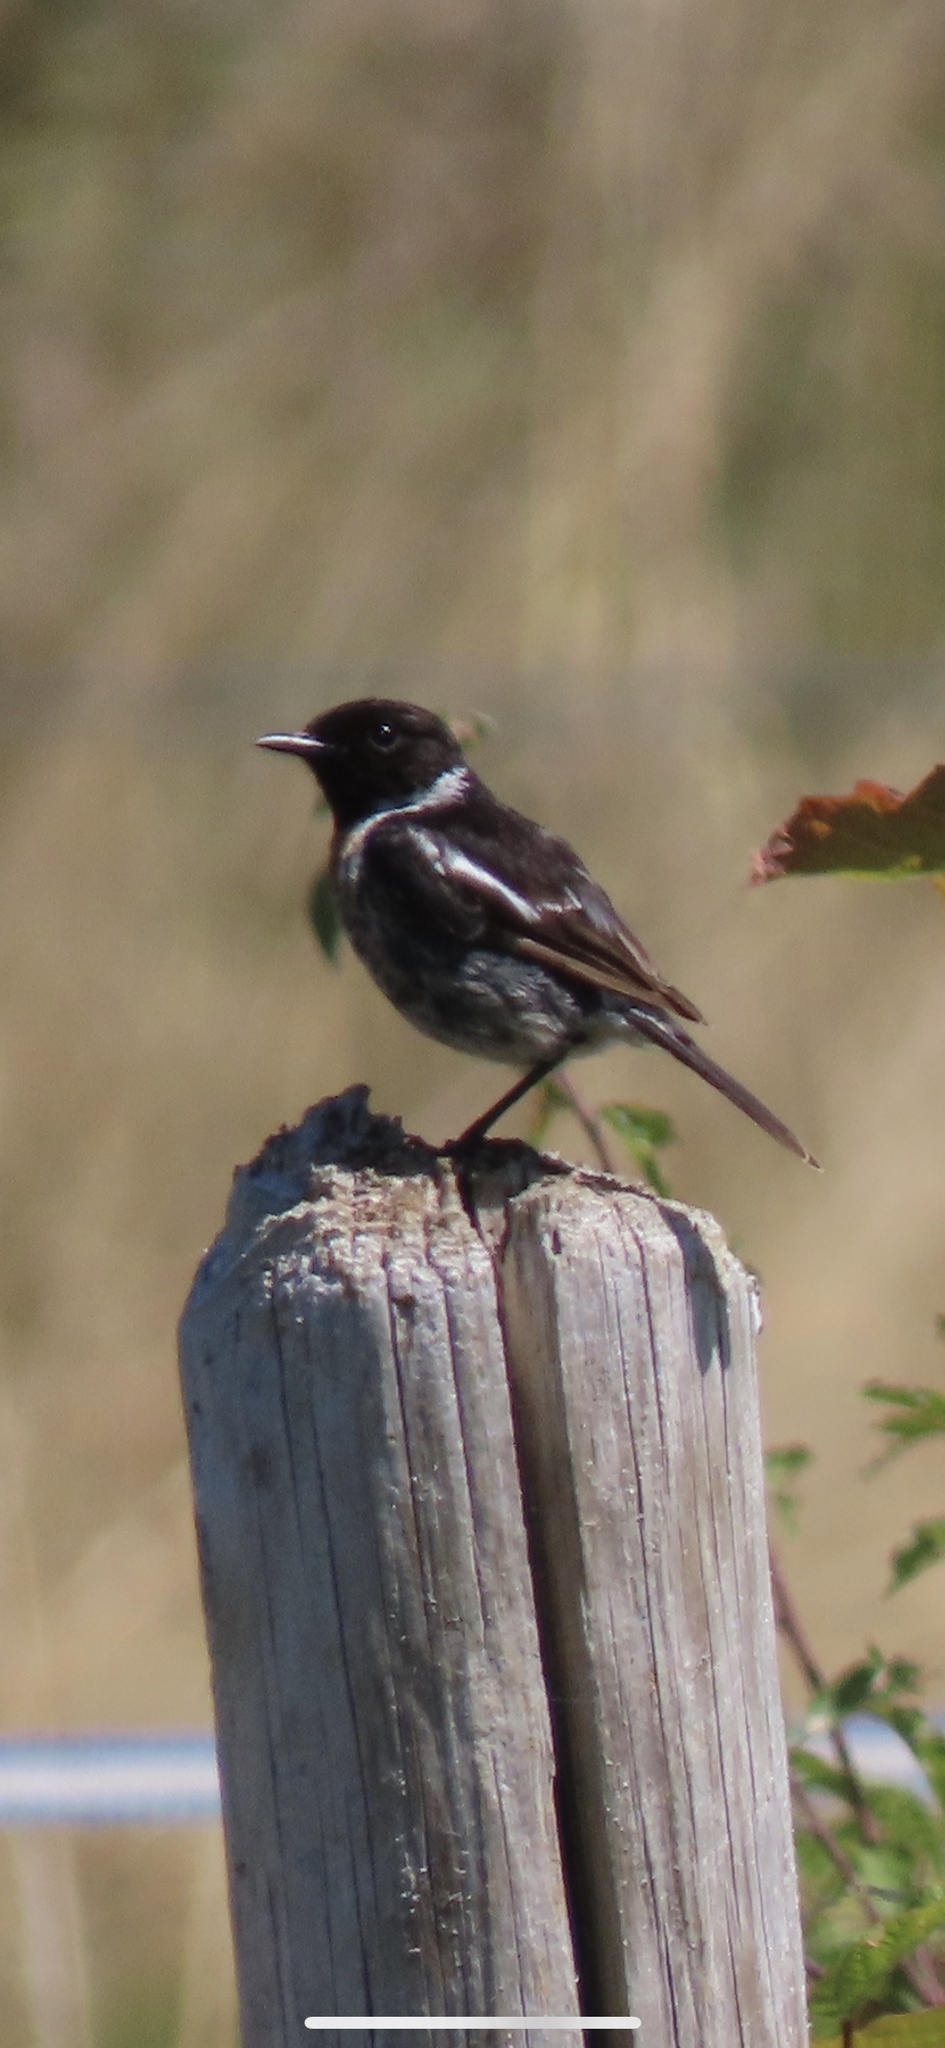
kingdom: Animalia
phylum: Chordata
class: Aves
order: Passeriformes
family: Muscicapidae
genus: Saxicola
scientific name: Saxicola rubicola
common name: European stonechat
